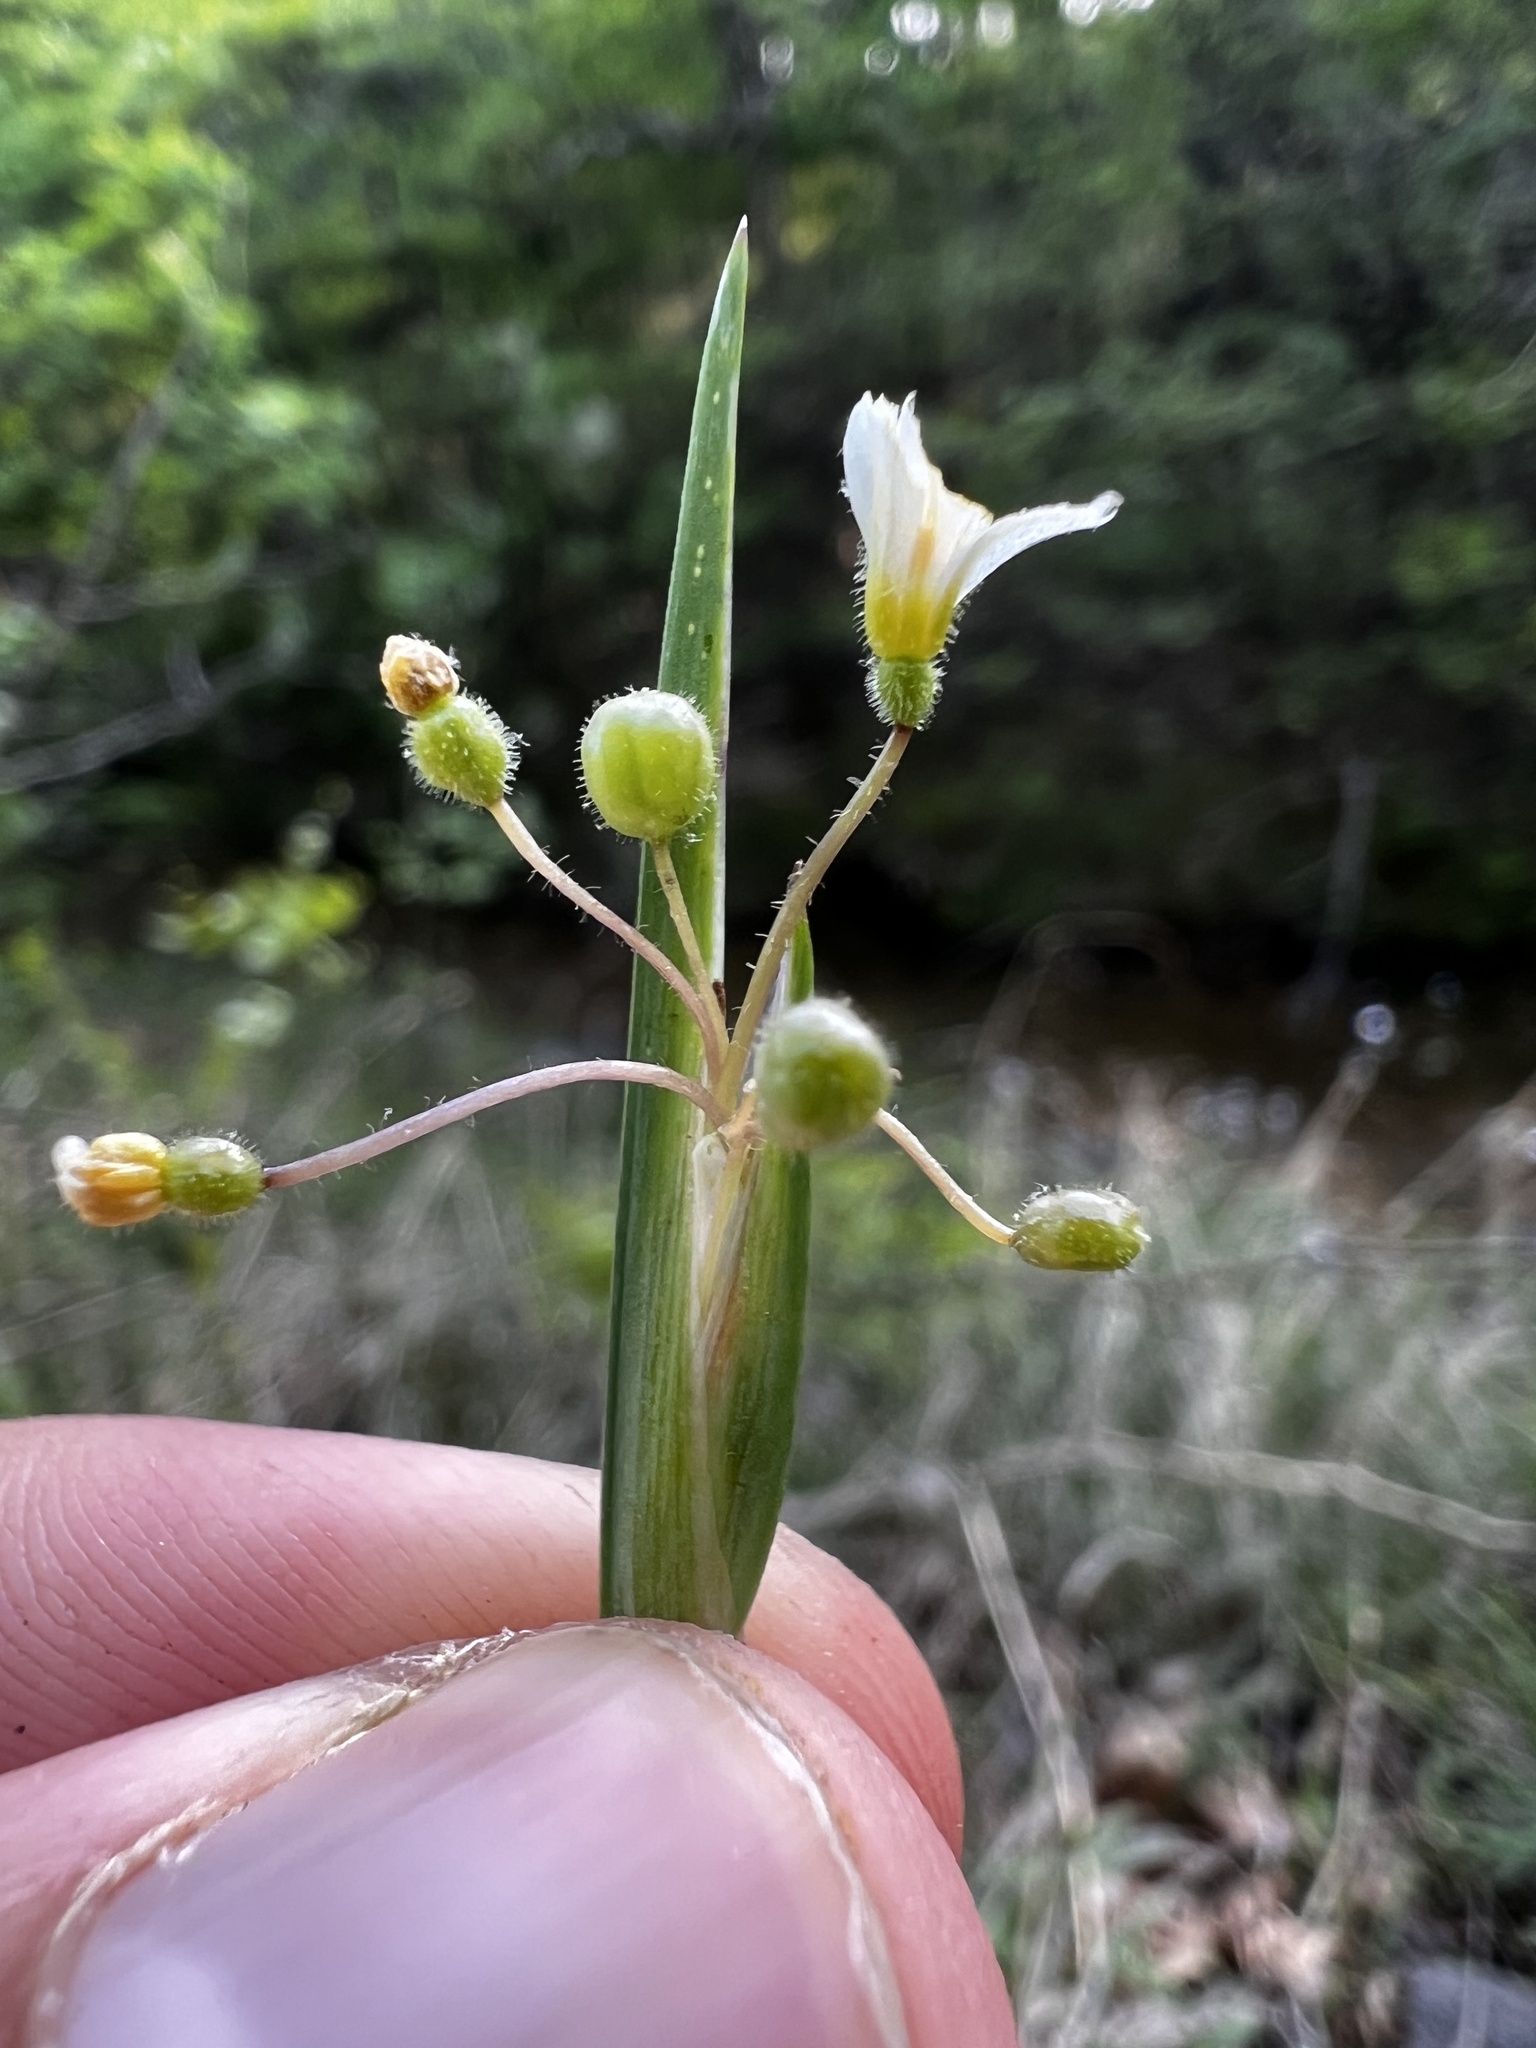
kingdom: Plantae
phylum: Tracheophyta
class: Liliopsida
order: Asparagales
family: Iridaceae
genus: Sisyrinchium
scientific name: Sisyrinchium albidum
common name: Pale blue-eyed-grass
